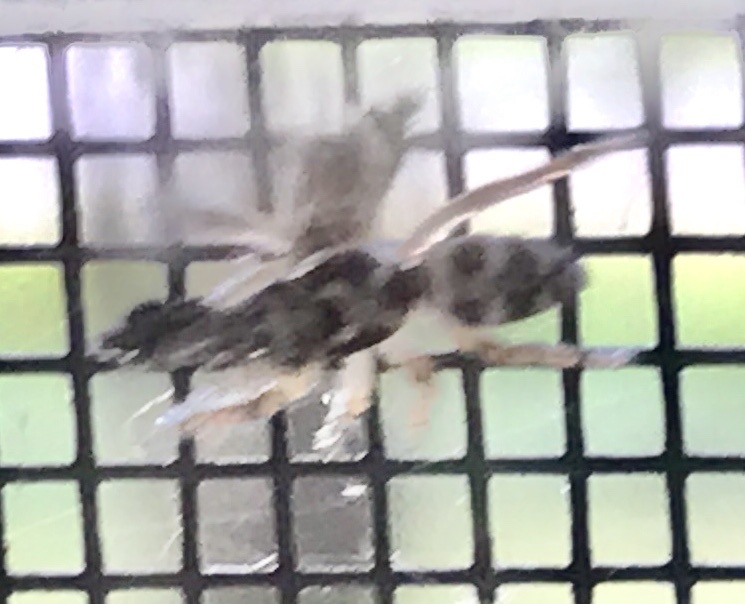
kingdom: Animalia
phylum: Arthropoda
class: Arachnida
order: Araneae
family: Salticidae
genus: Salticus
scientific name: Salticus scenicus
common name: Zebra jumper
